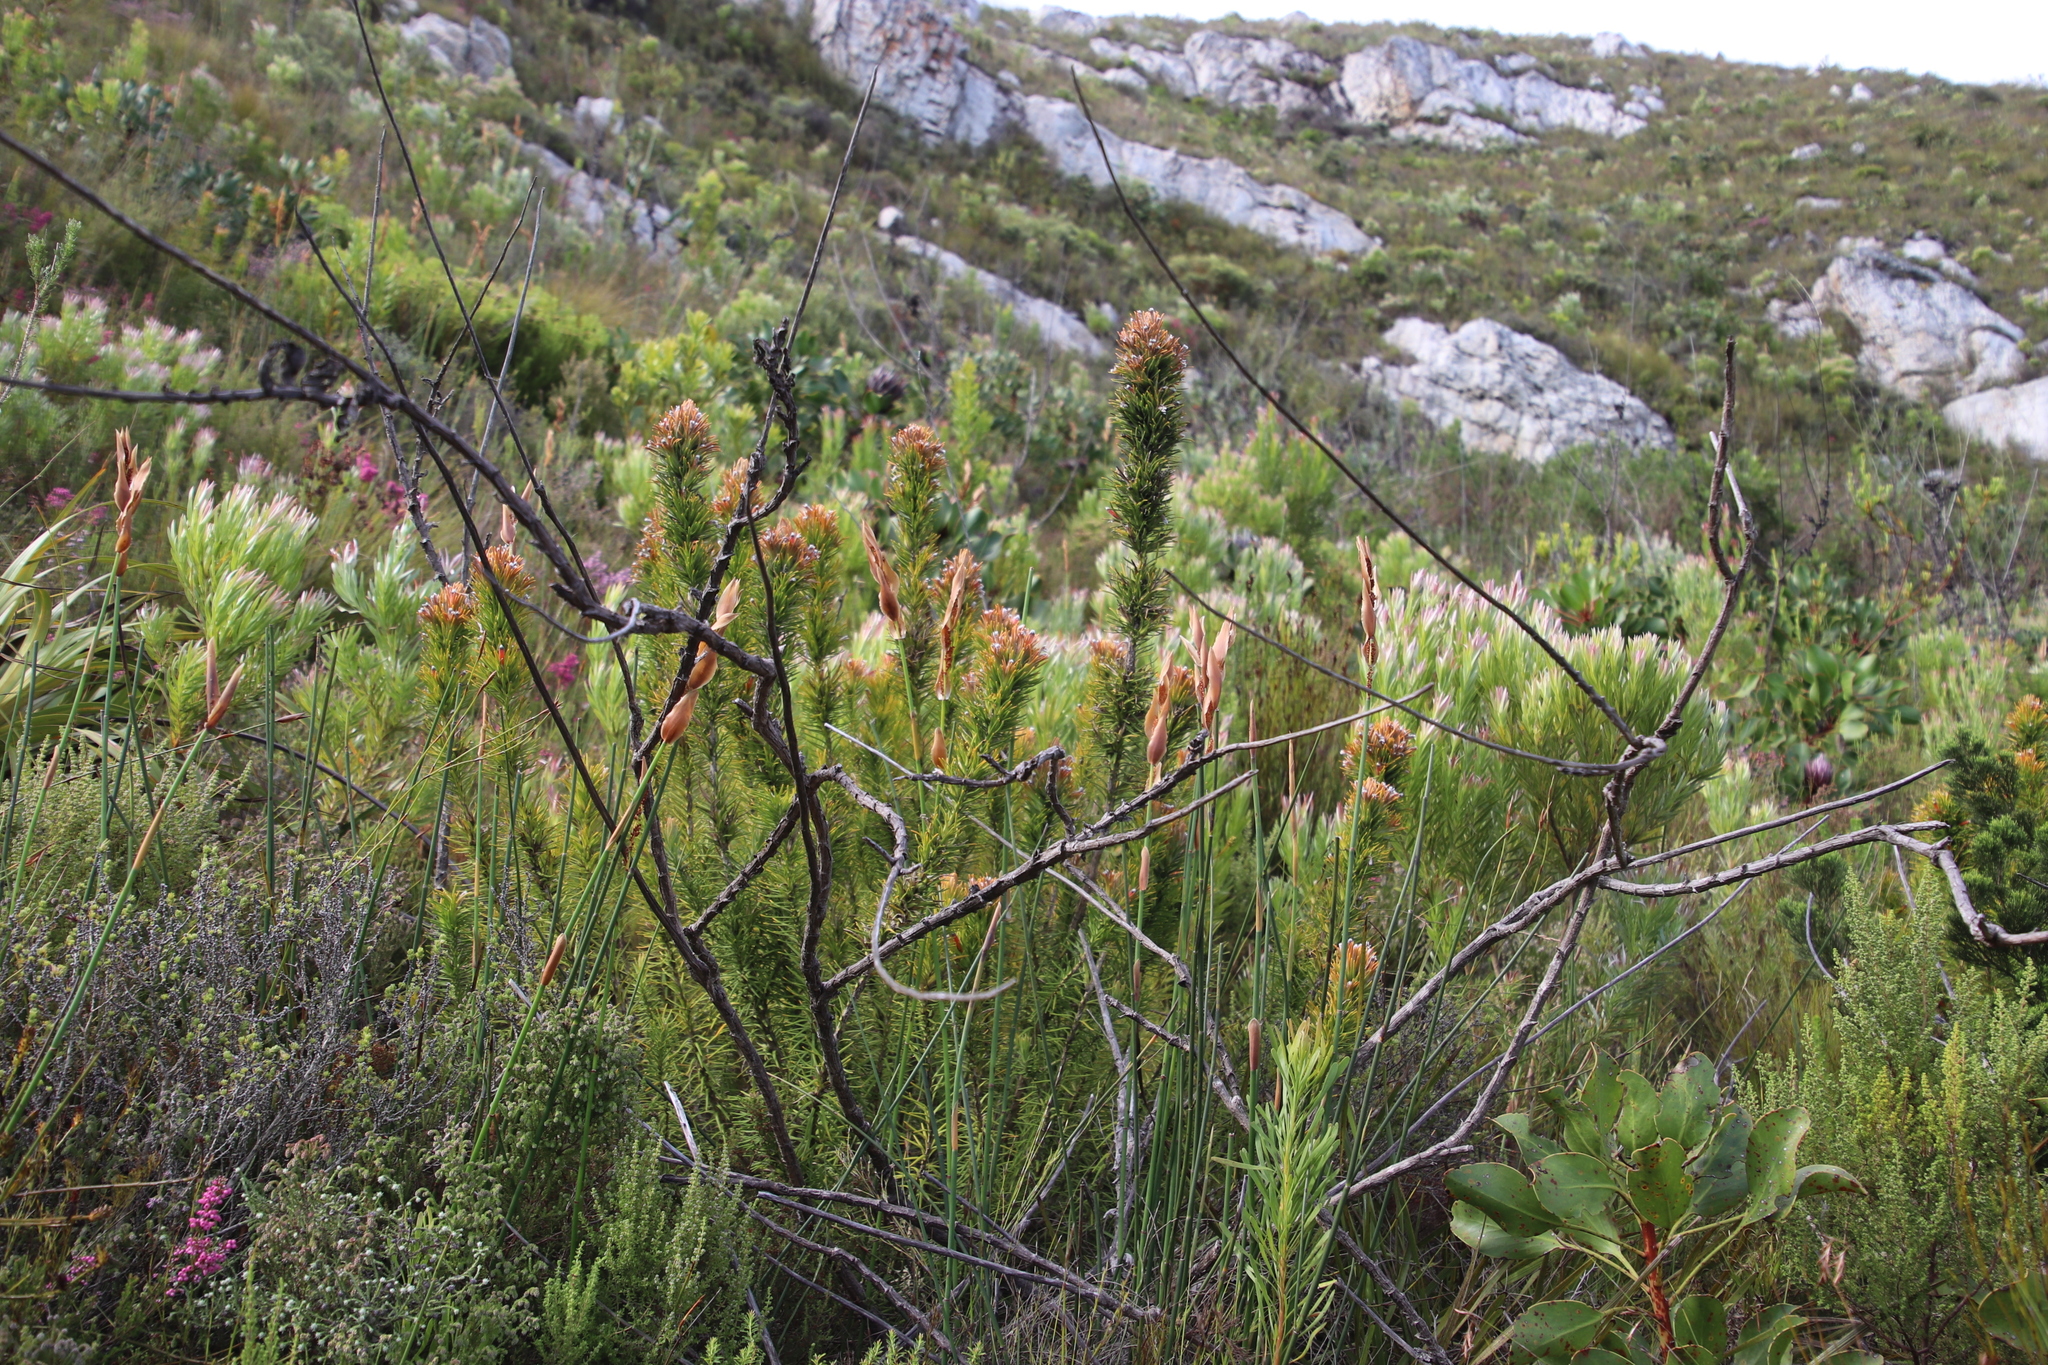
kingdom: Plantae
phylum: Tracheophyta
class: Magnoliopsida
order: Lamiales
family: Stilbaceae
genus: Retzia
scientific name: Retzia capensis
